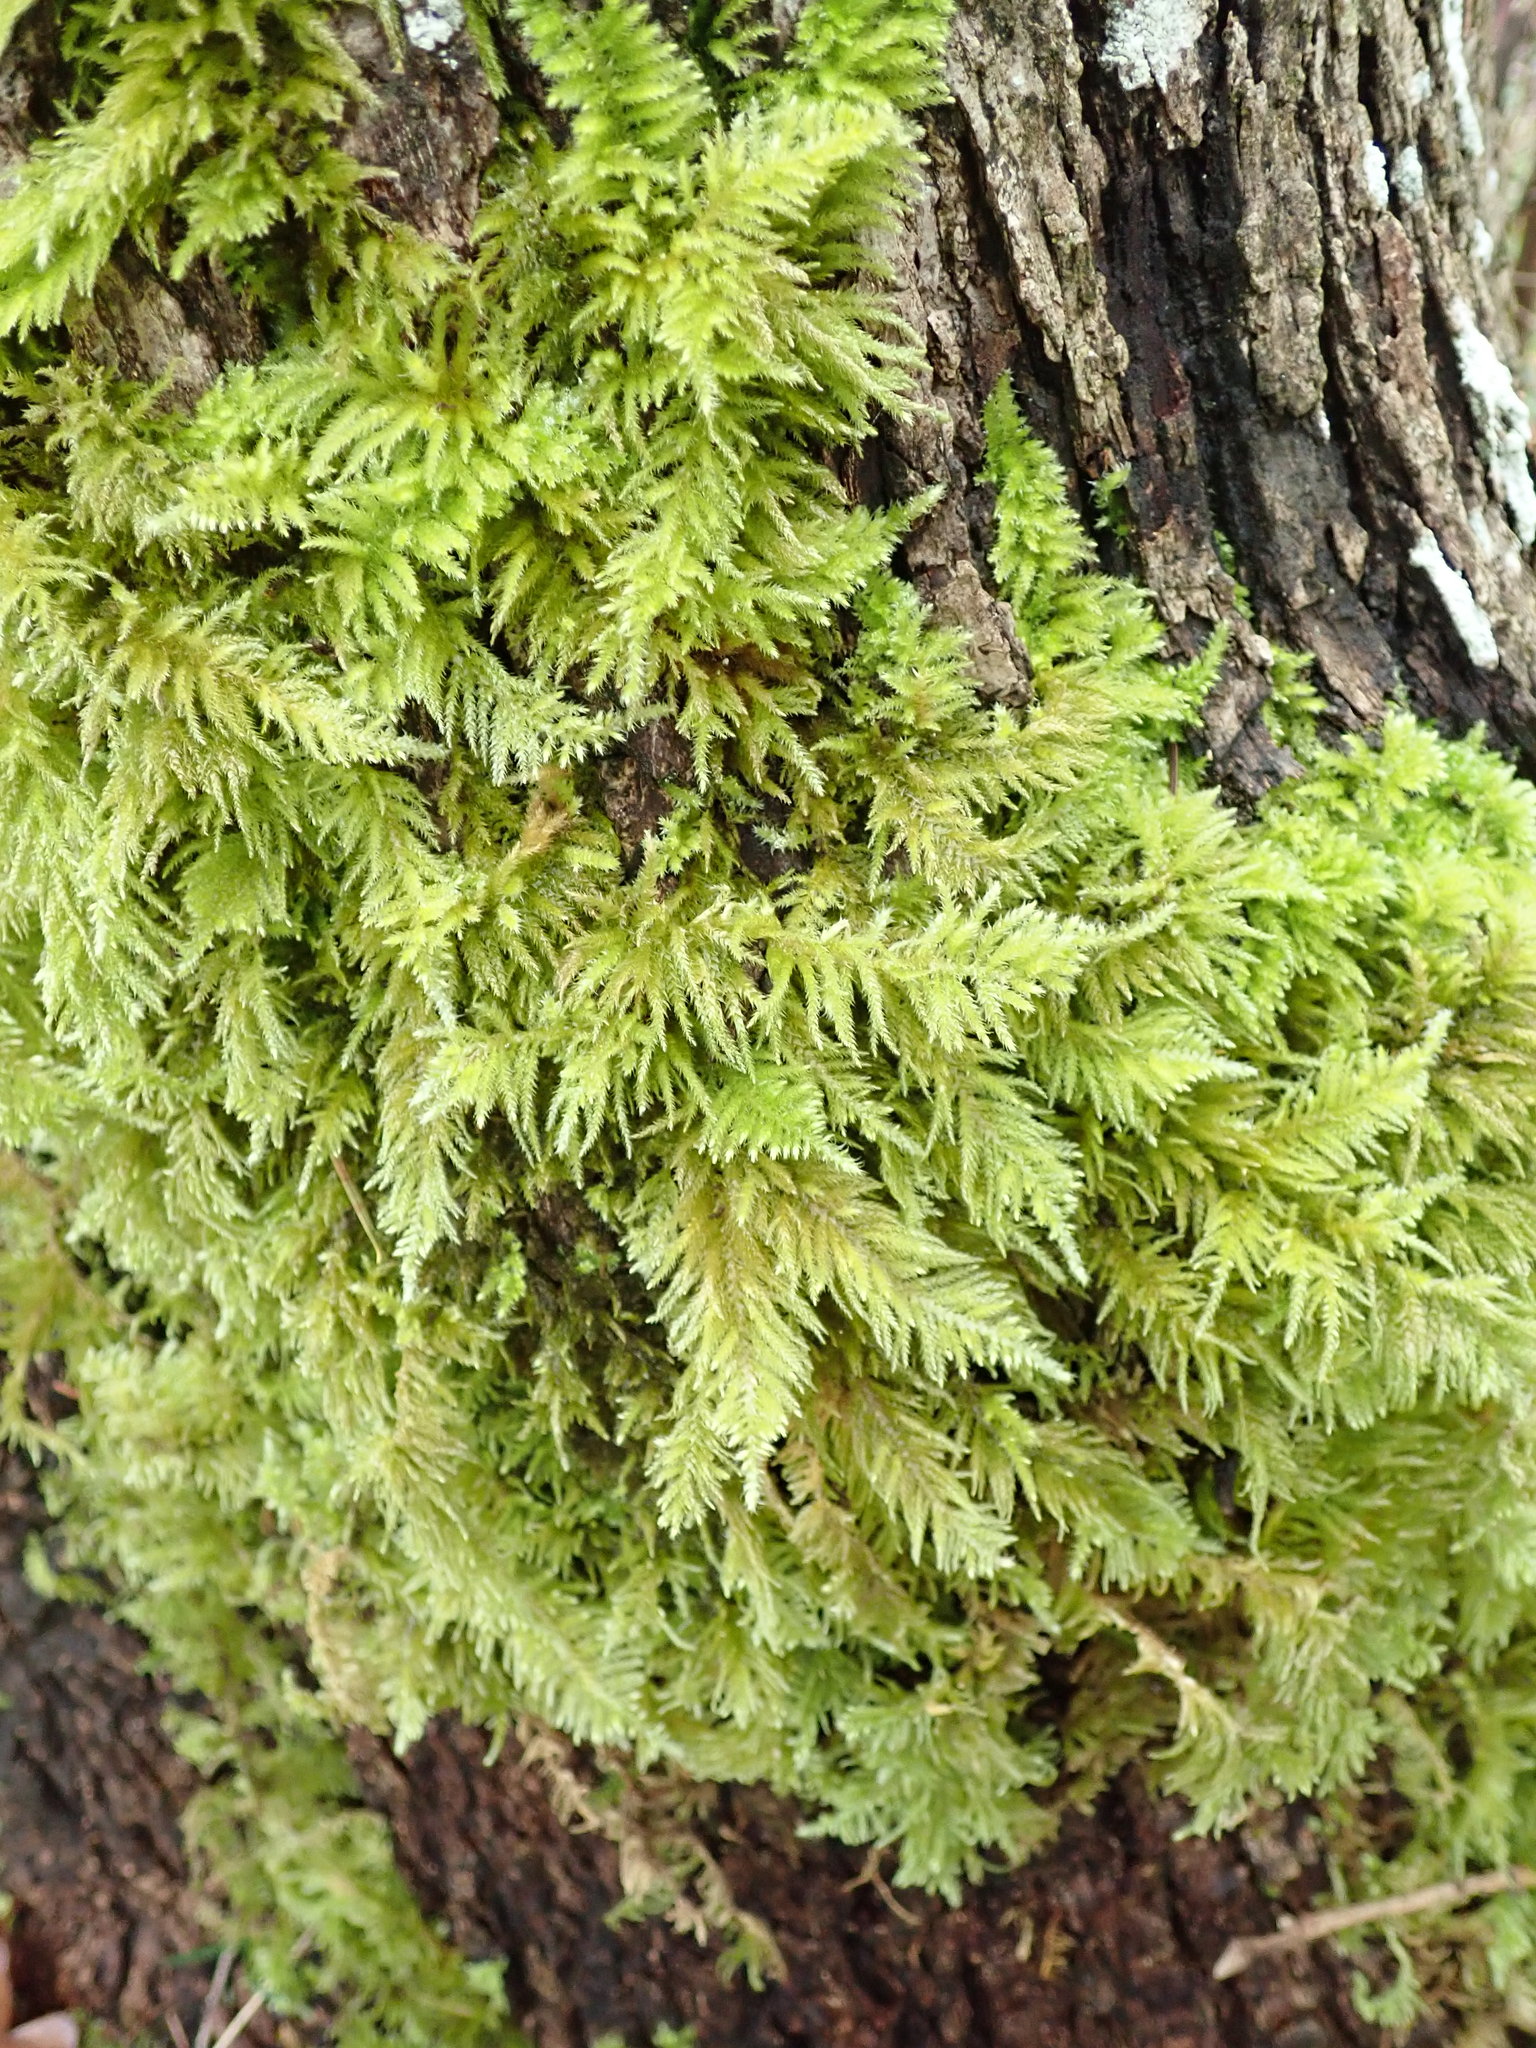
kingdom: Plantae
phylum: Bryophyta
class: Bryopsida
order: Hypnales
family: Brachytheciaceae
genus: Kindbergia
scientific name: Kindbergia oregana
